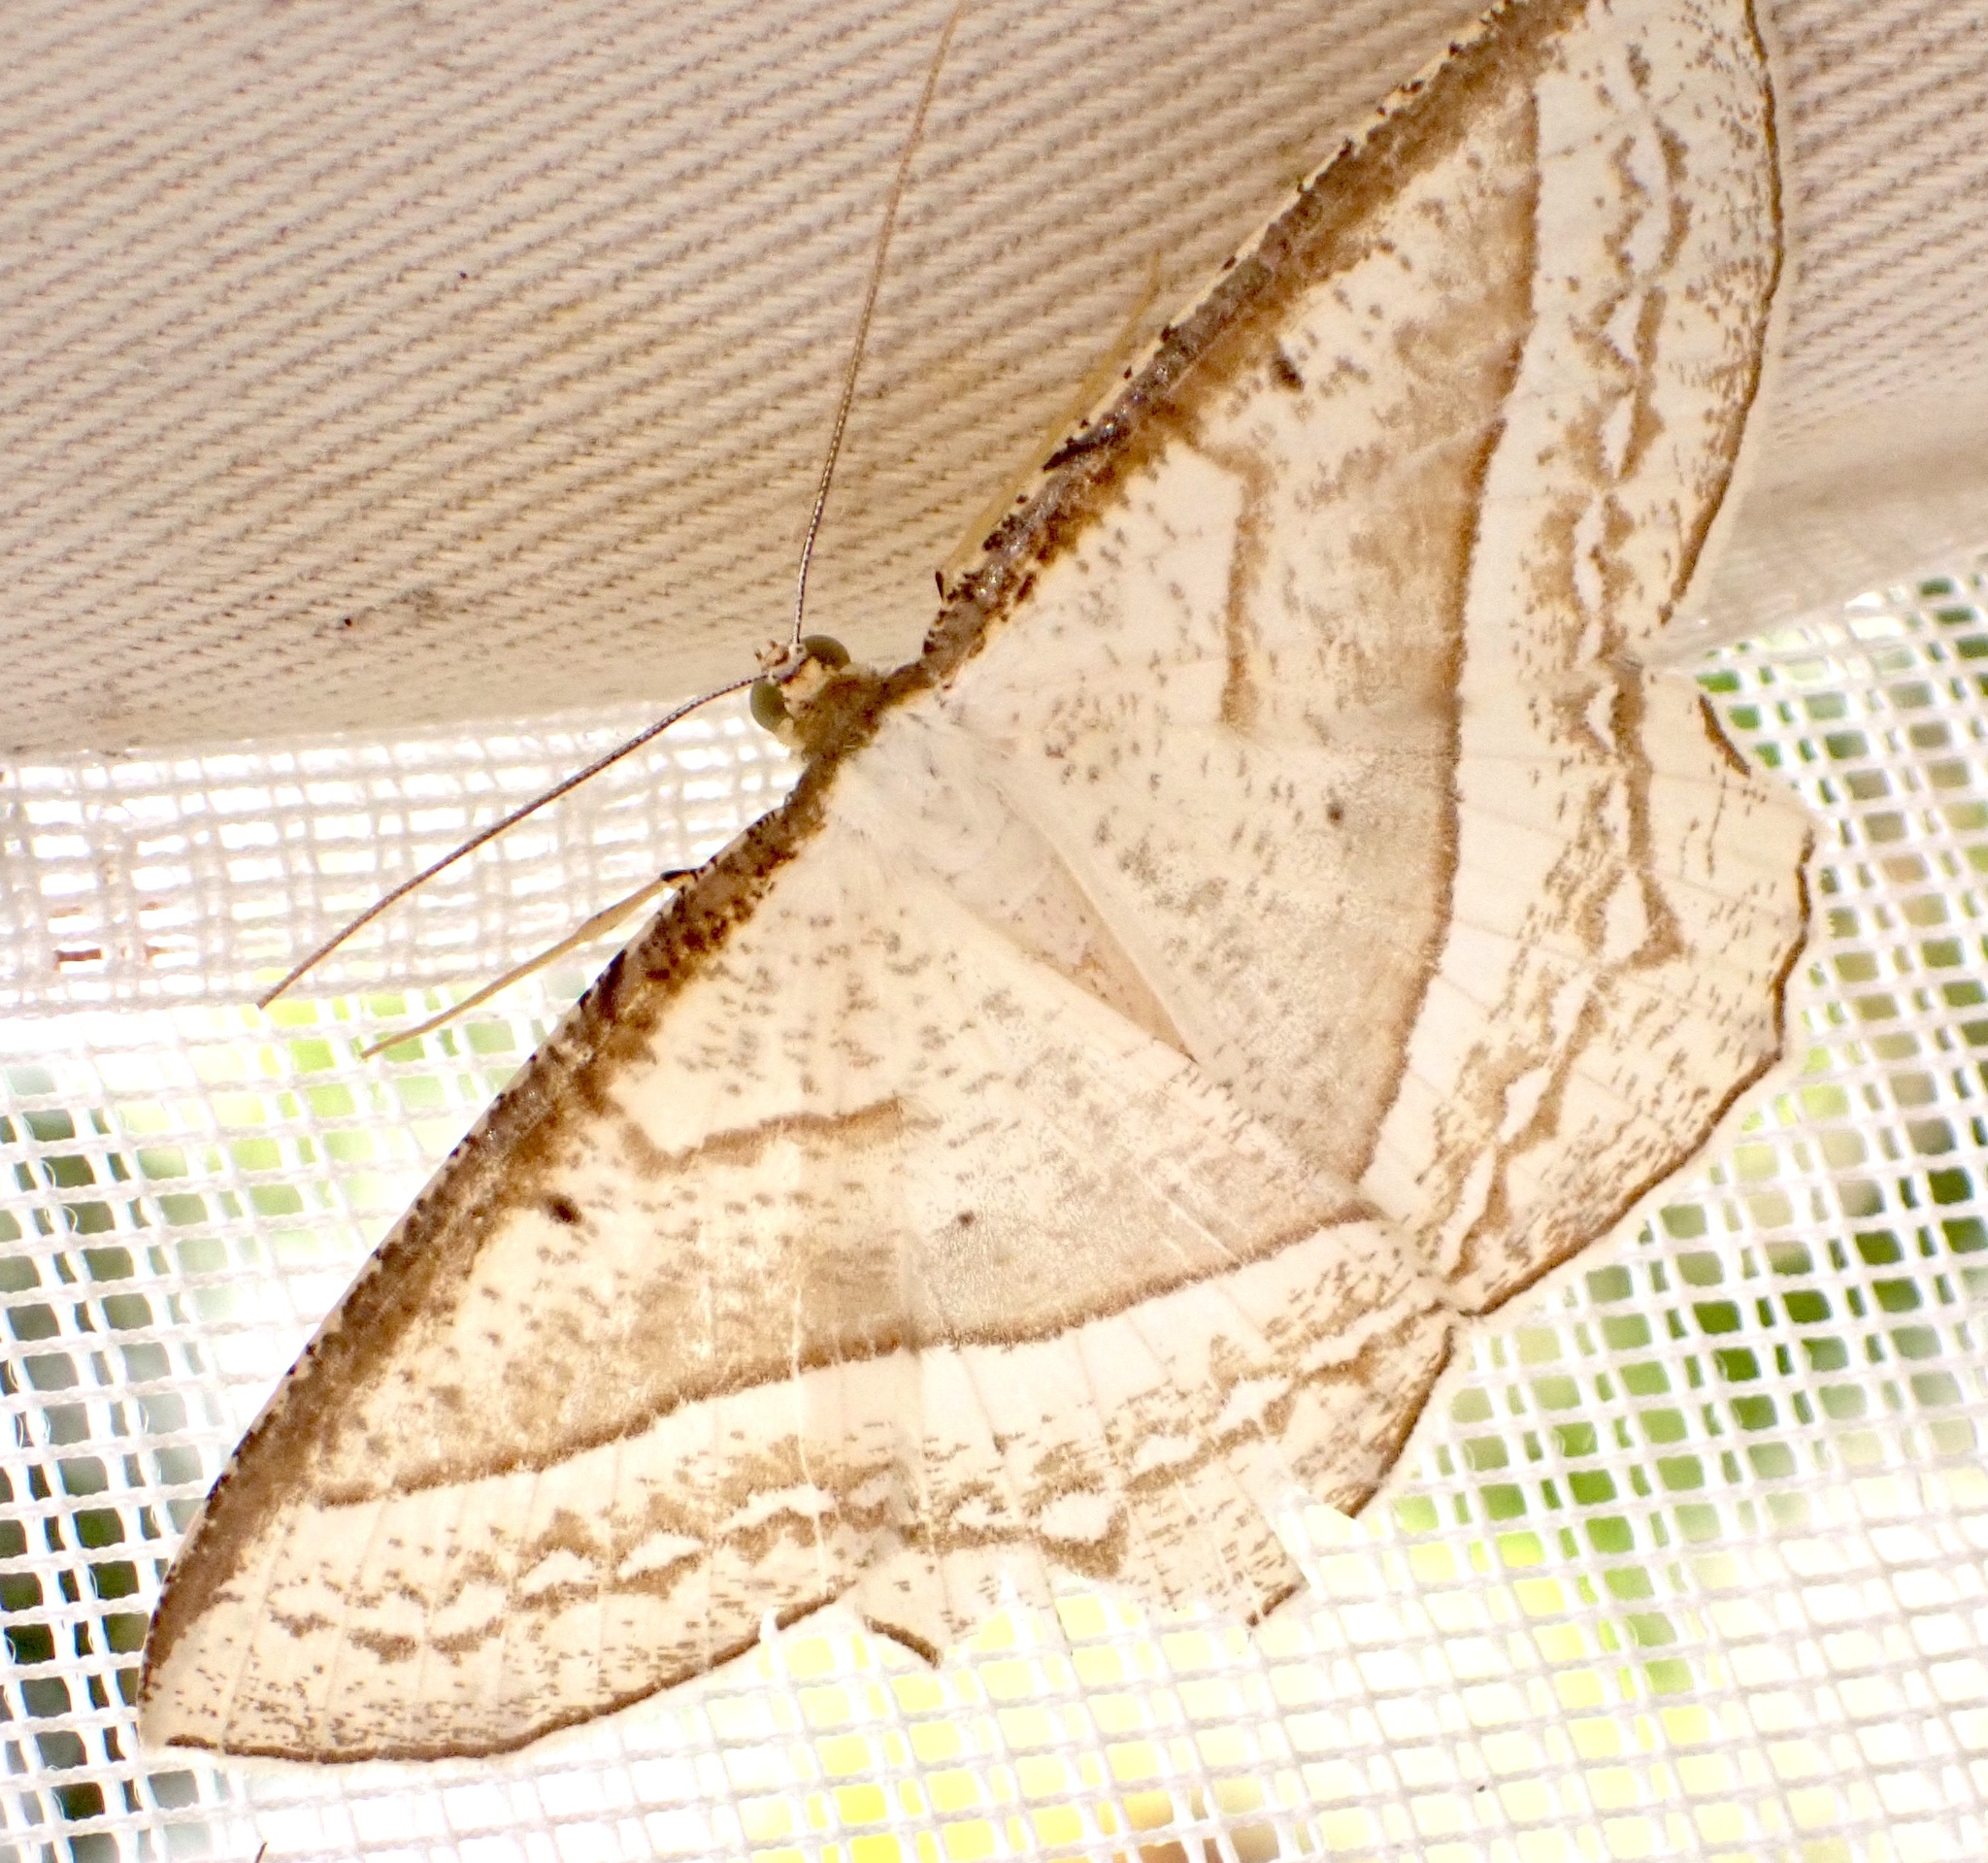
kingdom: Animalia
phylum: Arthropoda
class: Insecta
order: Lepidoptera
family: Geometridae
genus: Melinoessa
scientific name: Melinoessa stramineata
